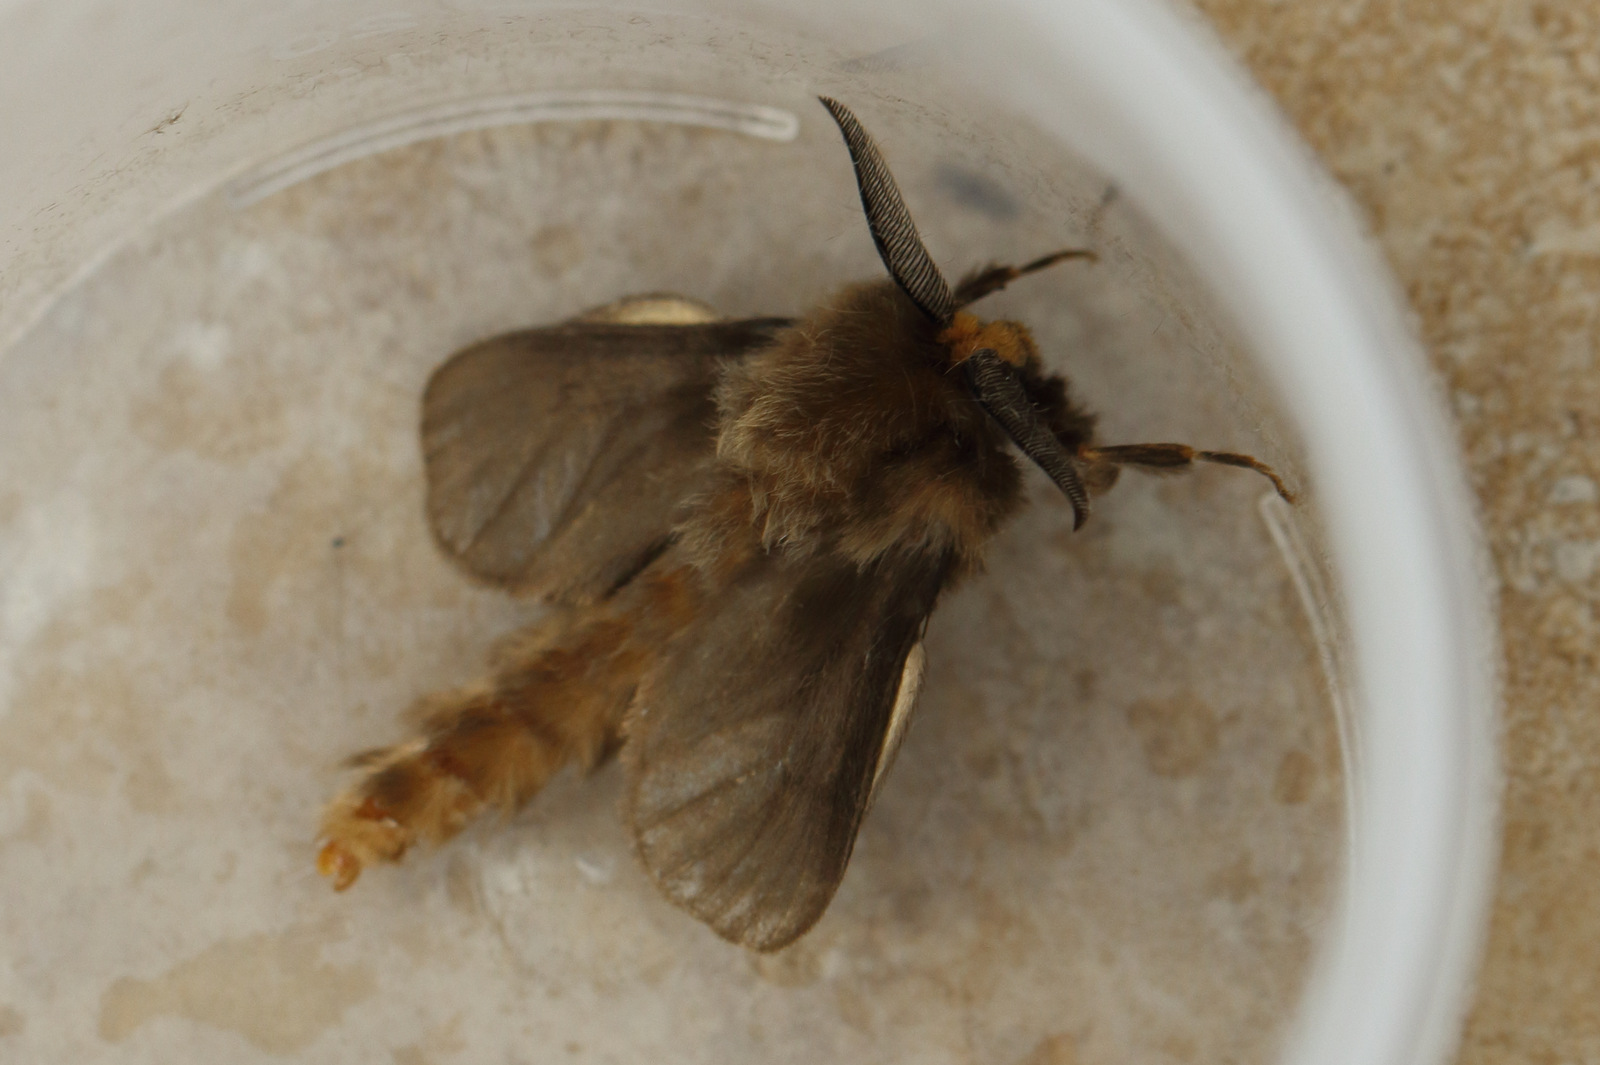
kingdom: Animalia
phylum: Arthropoda
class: Insecta
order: Lepidoptera
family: Psychidae
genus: Lomera
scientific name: Lomera lurida
